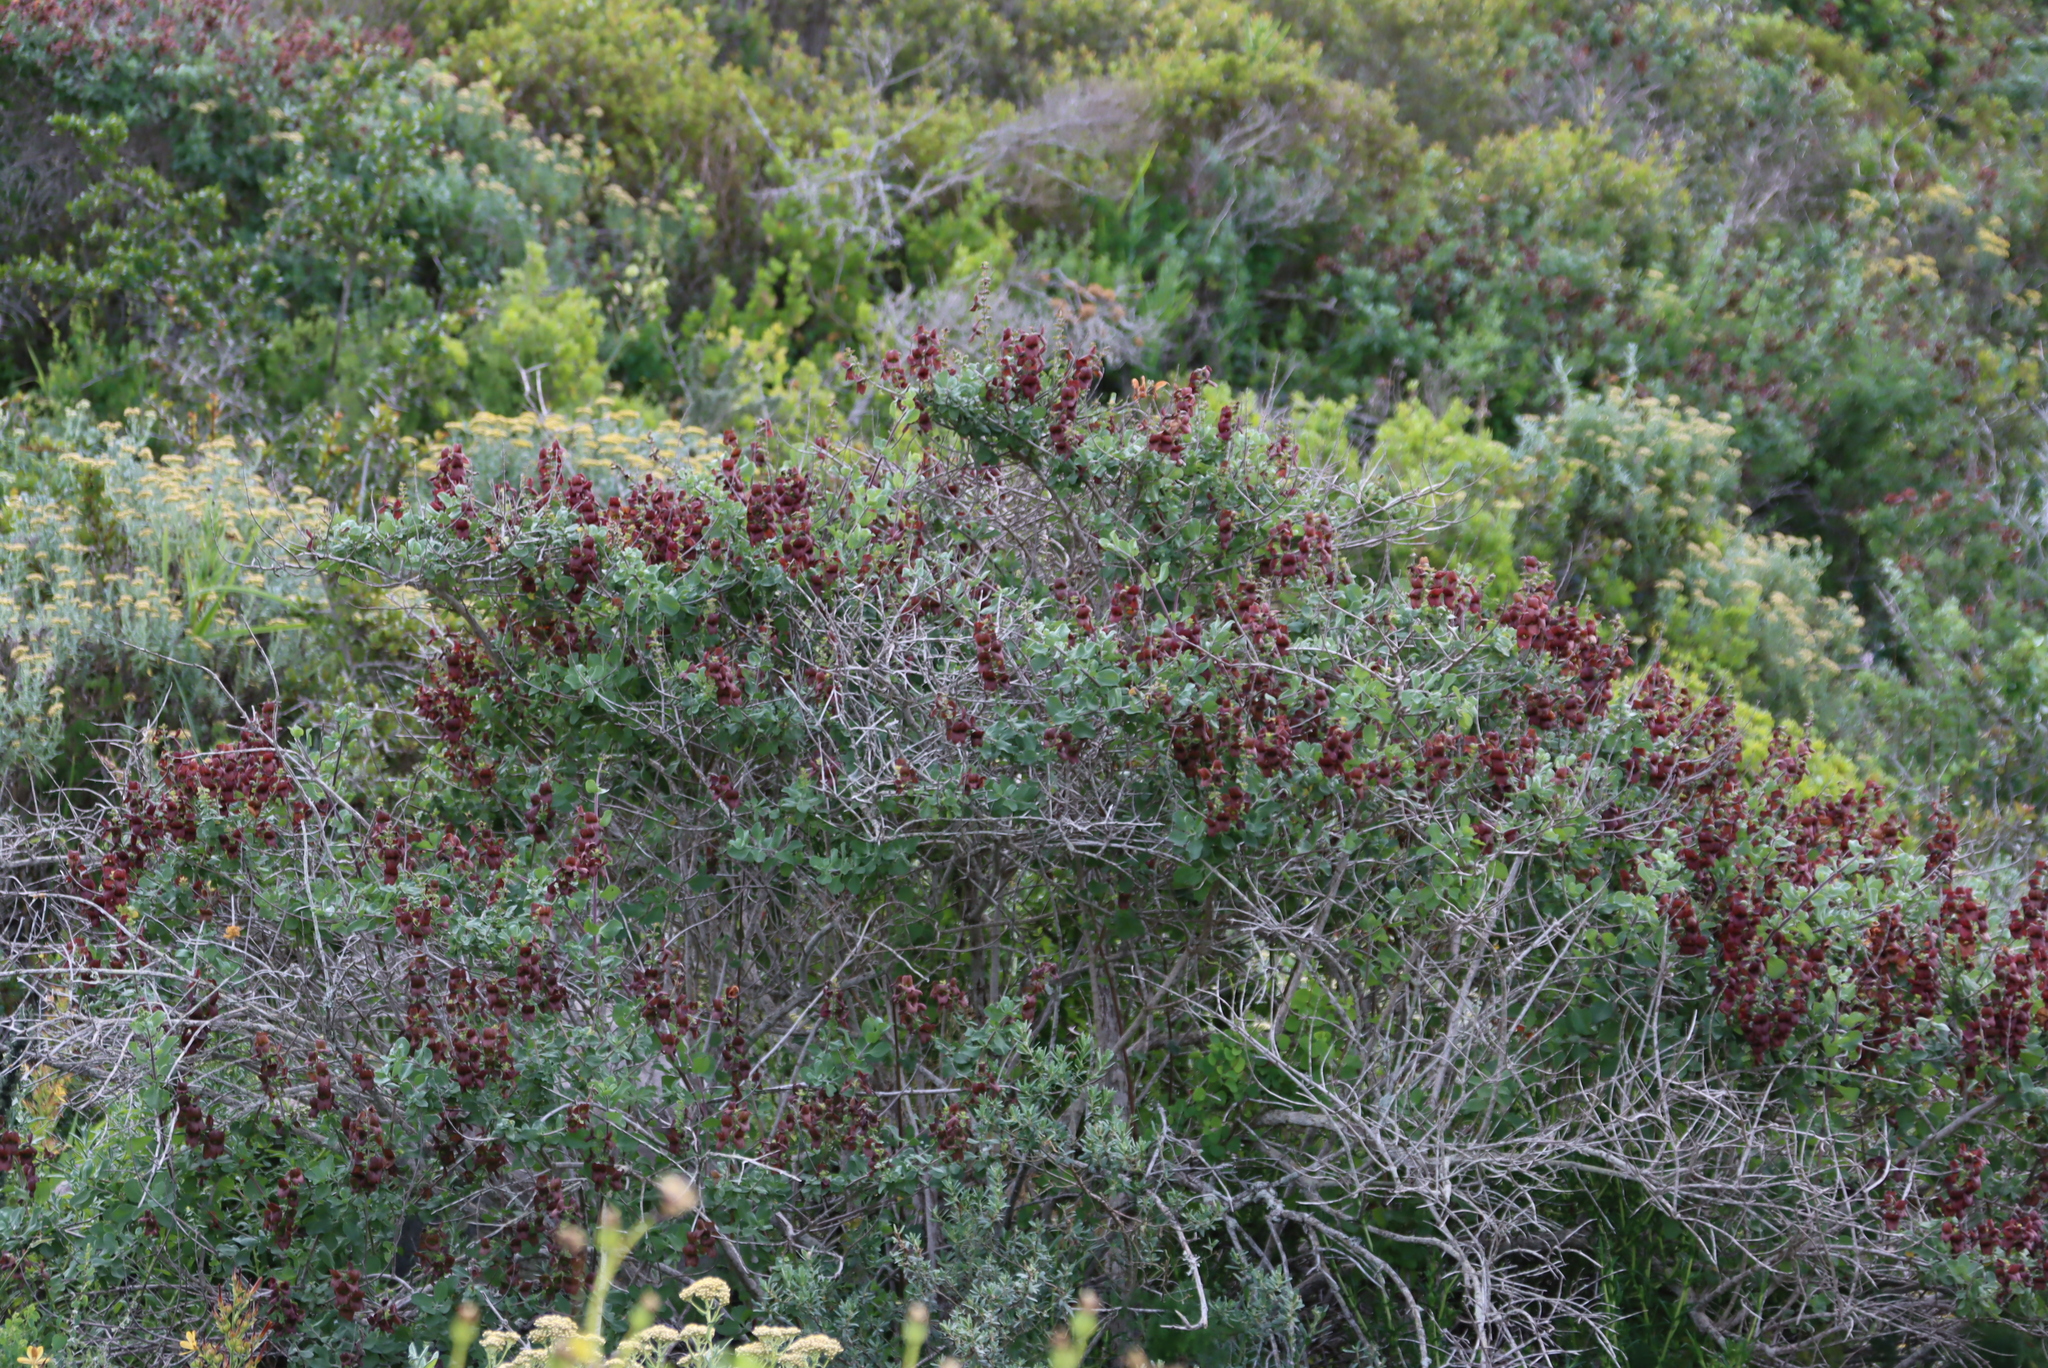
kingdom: Plantae
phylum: Tracheophyta
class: Magnoliopsida
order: Lamiales
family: Lamiaceae
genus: Salvia
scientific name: Salvia aurea
